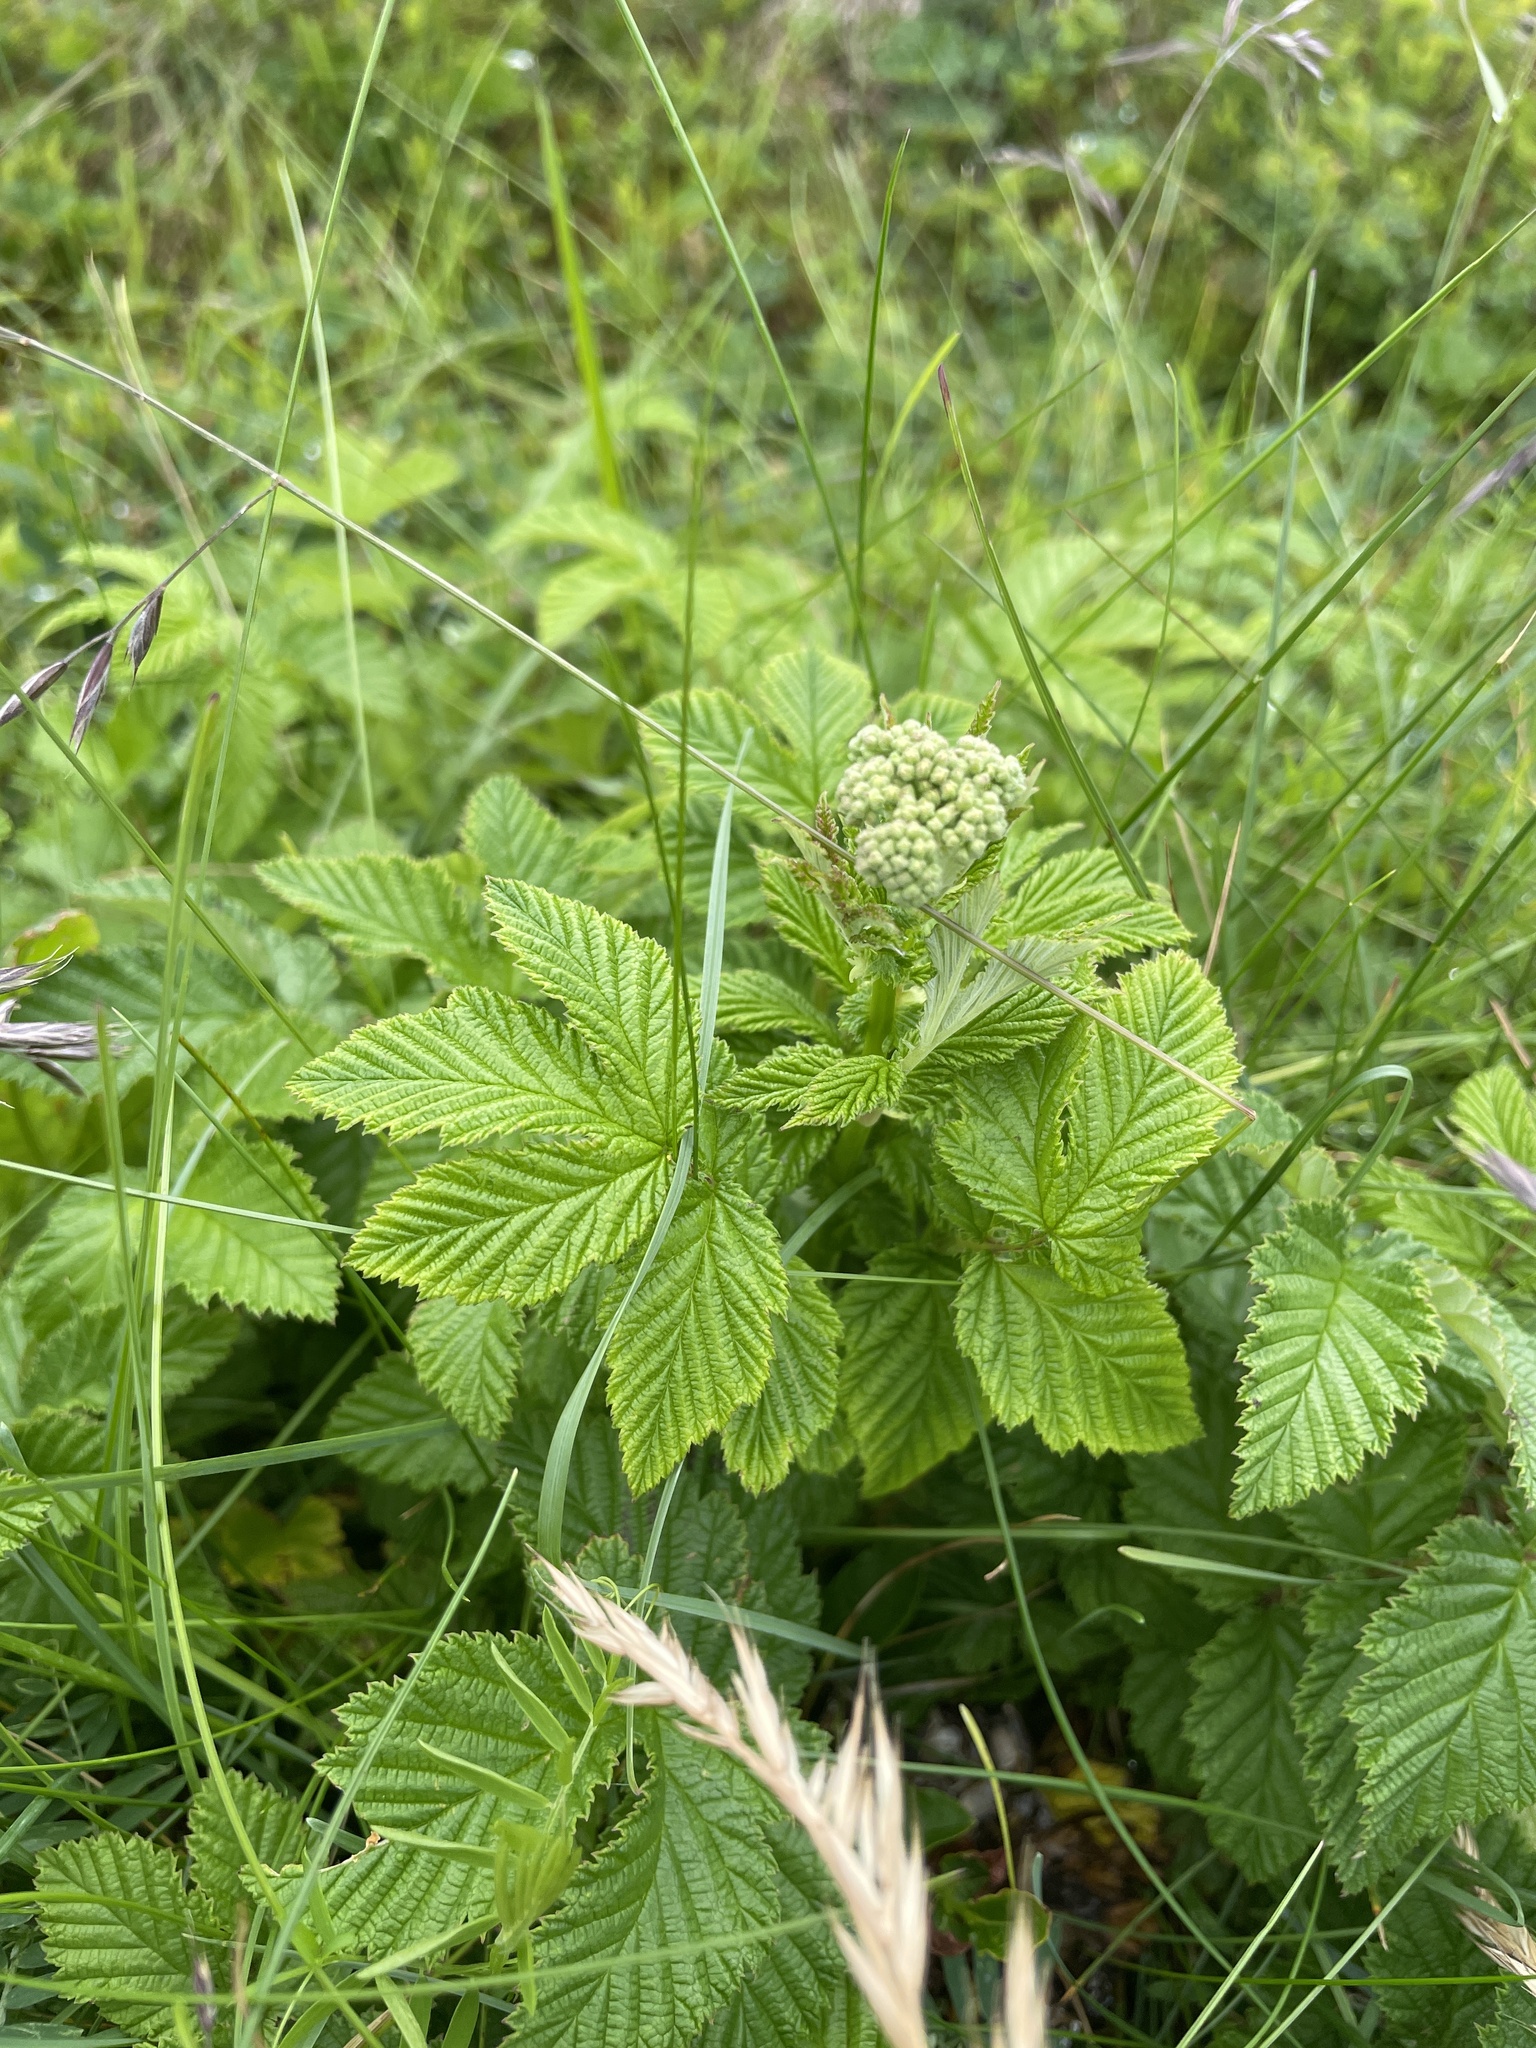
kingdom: Plantae
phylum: Tracheophyta
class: Magnoliopsida
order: Rosales
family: Rosaceae
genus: Filipendula
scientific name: Filipendula ulmaria
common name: Meadowsweet
